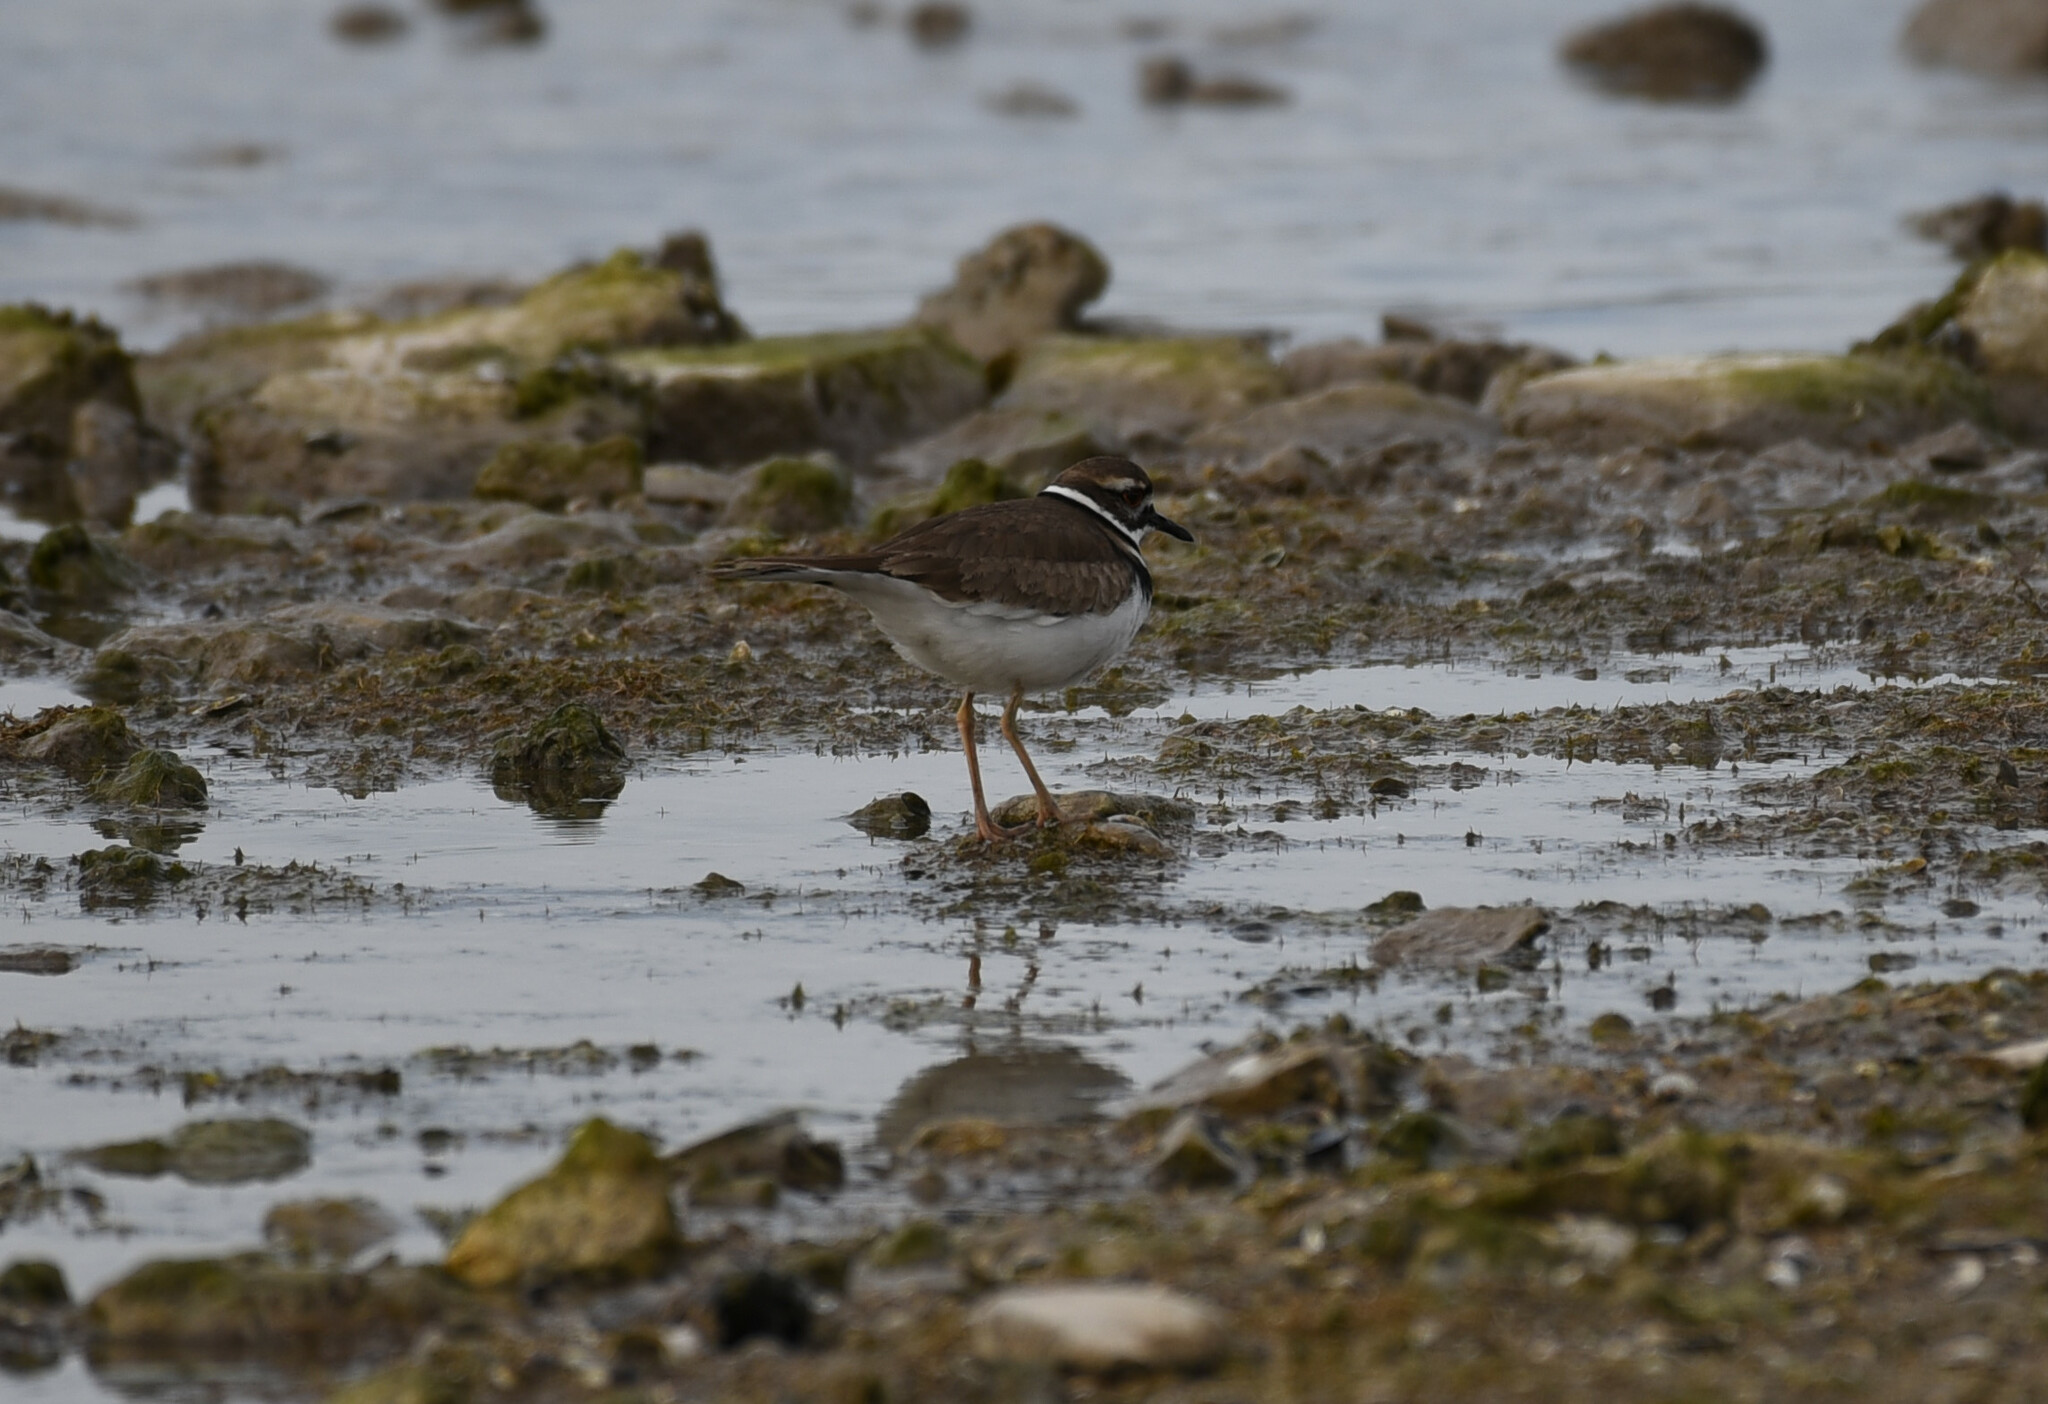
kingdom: Animalia
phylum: Chordata
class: Aves
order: Charadriiformes
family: Charadriidae
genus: Charadrius
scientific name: Charadrius vociferus
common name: Killdeer
